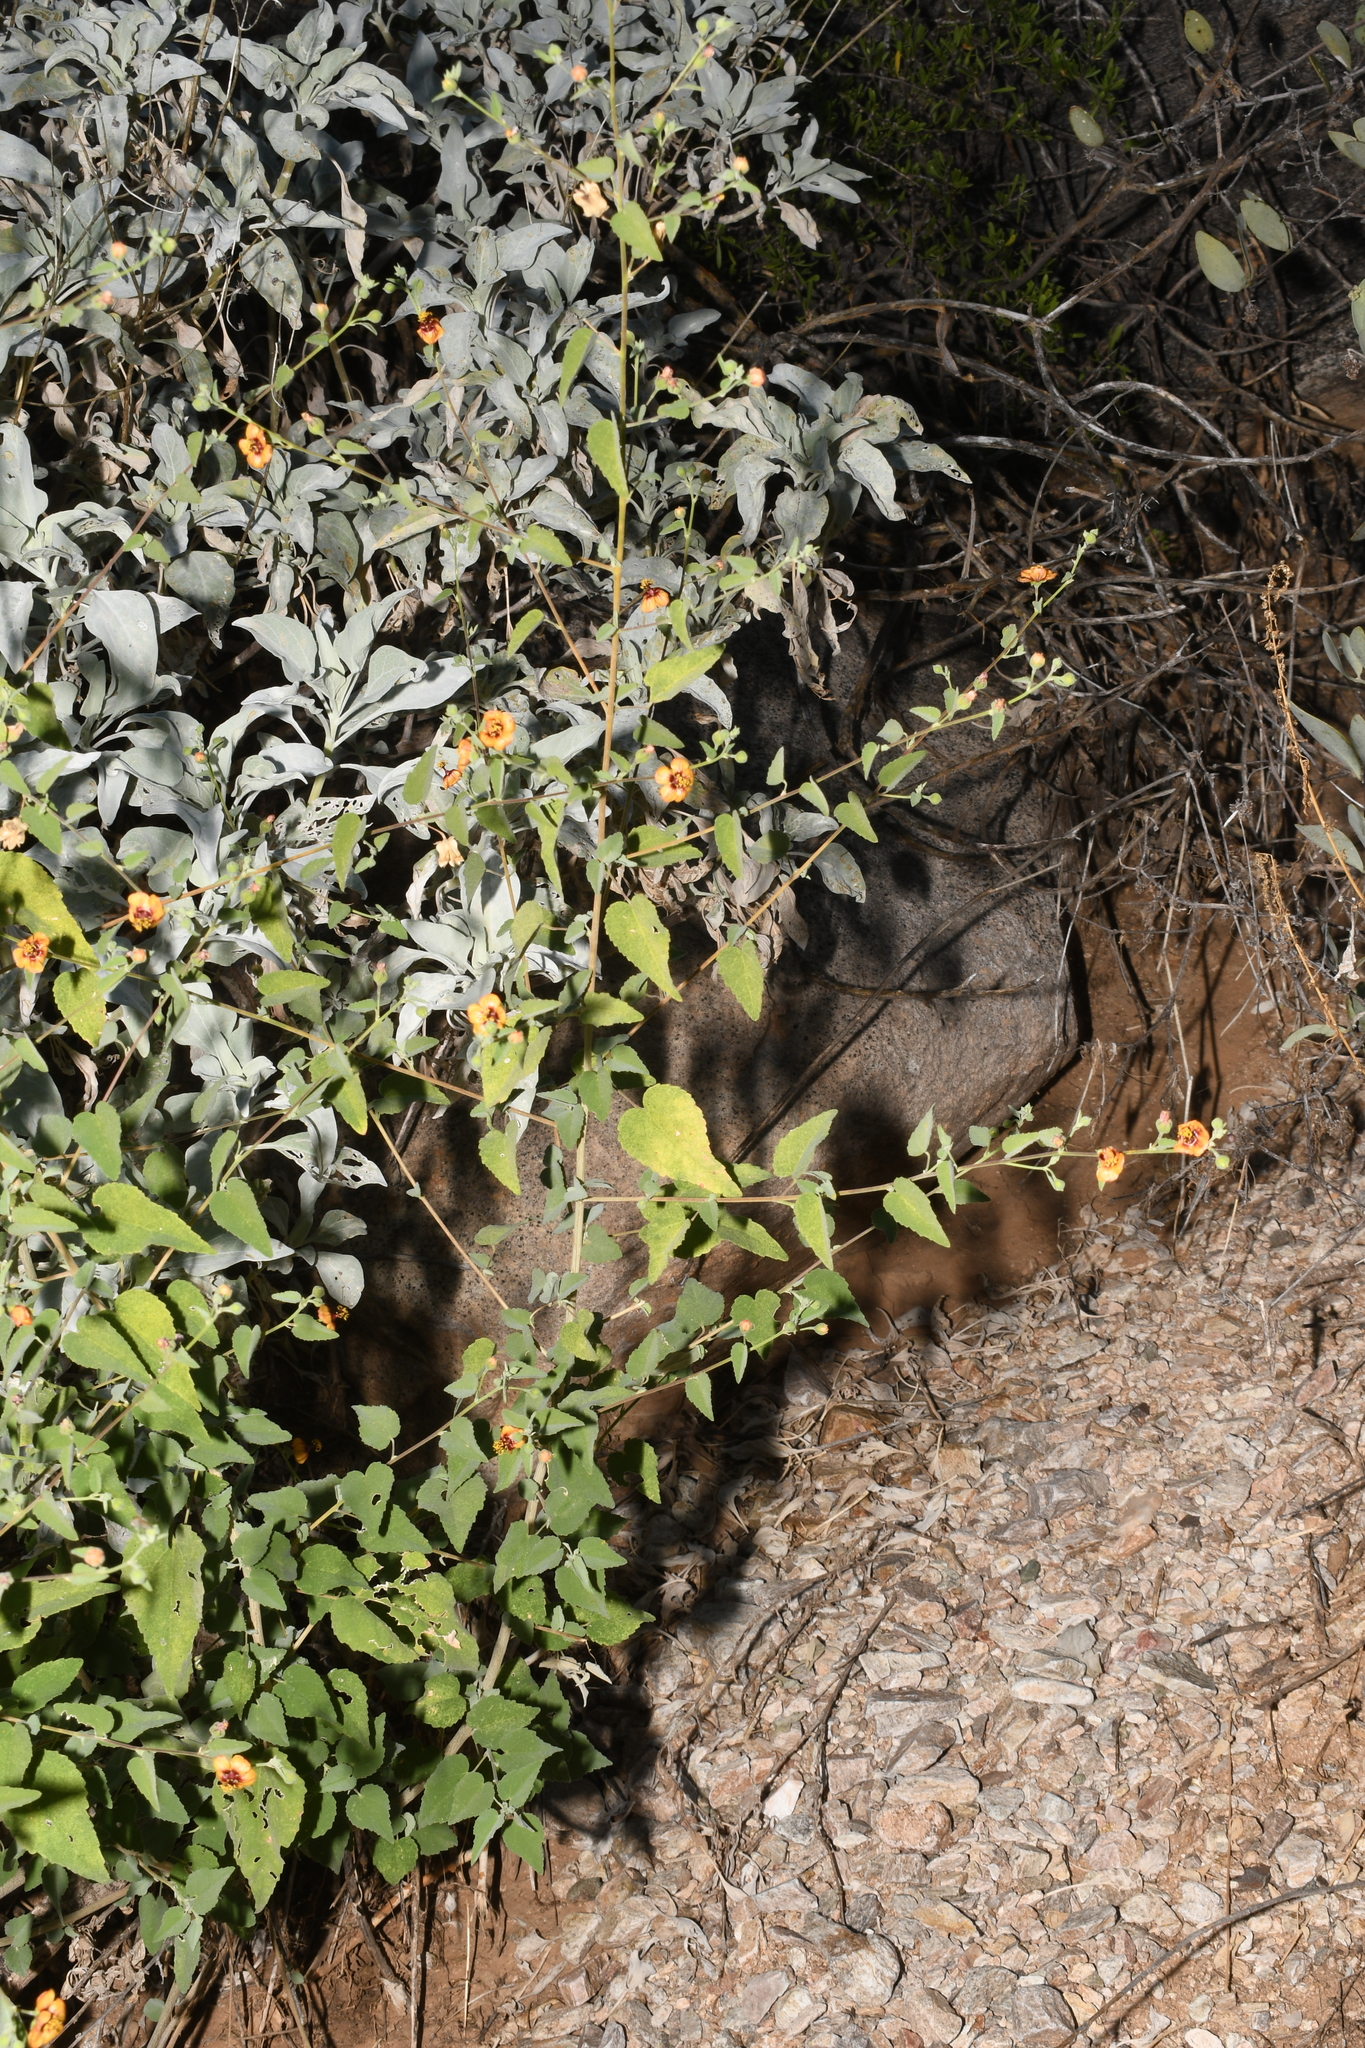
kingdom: Plantae
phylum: Tracheophyta
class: Magnoliopsida
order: Malvales
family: Malvaceae
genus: Abutilon
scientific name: Abutilon incanum
